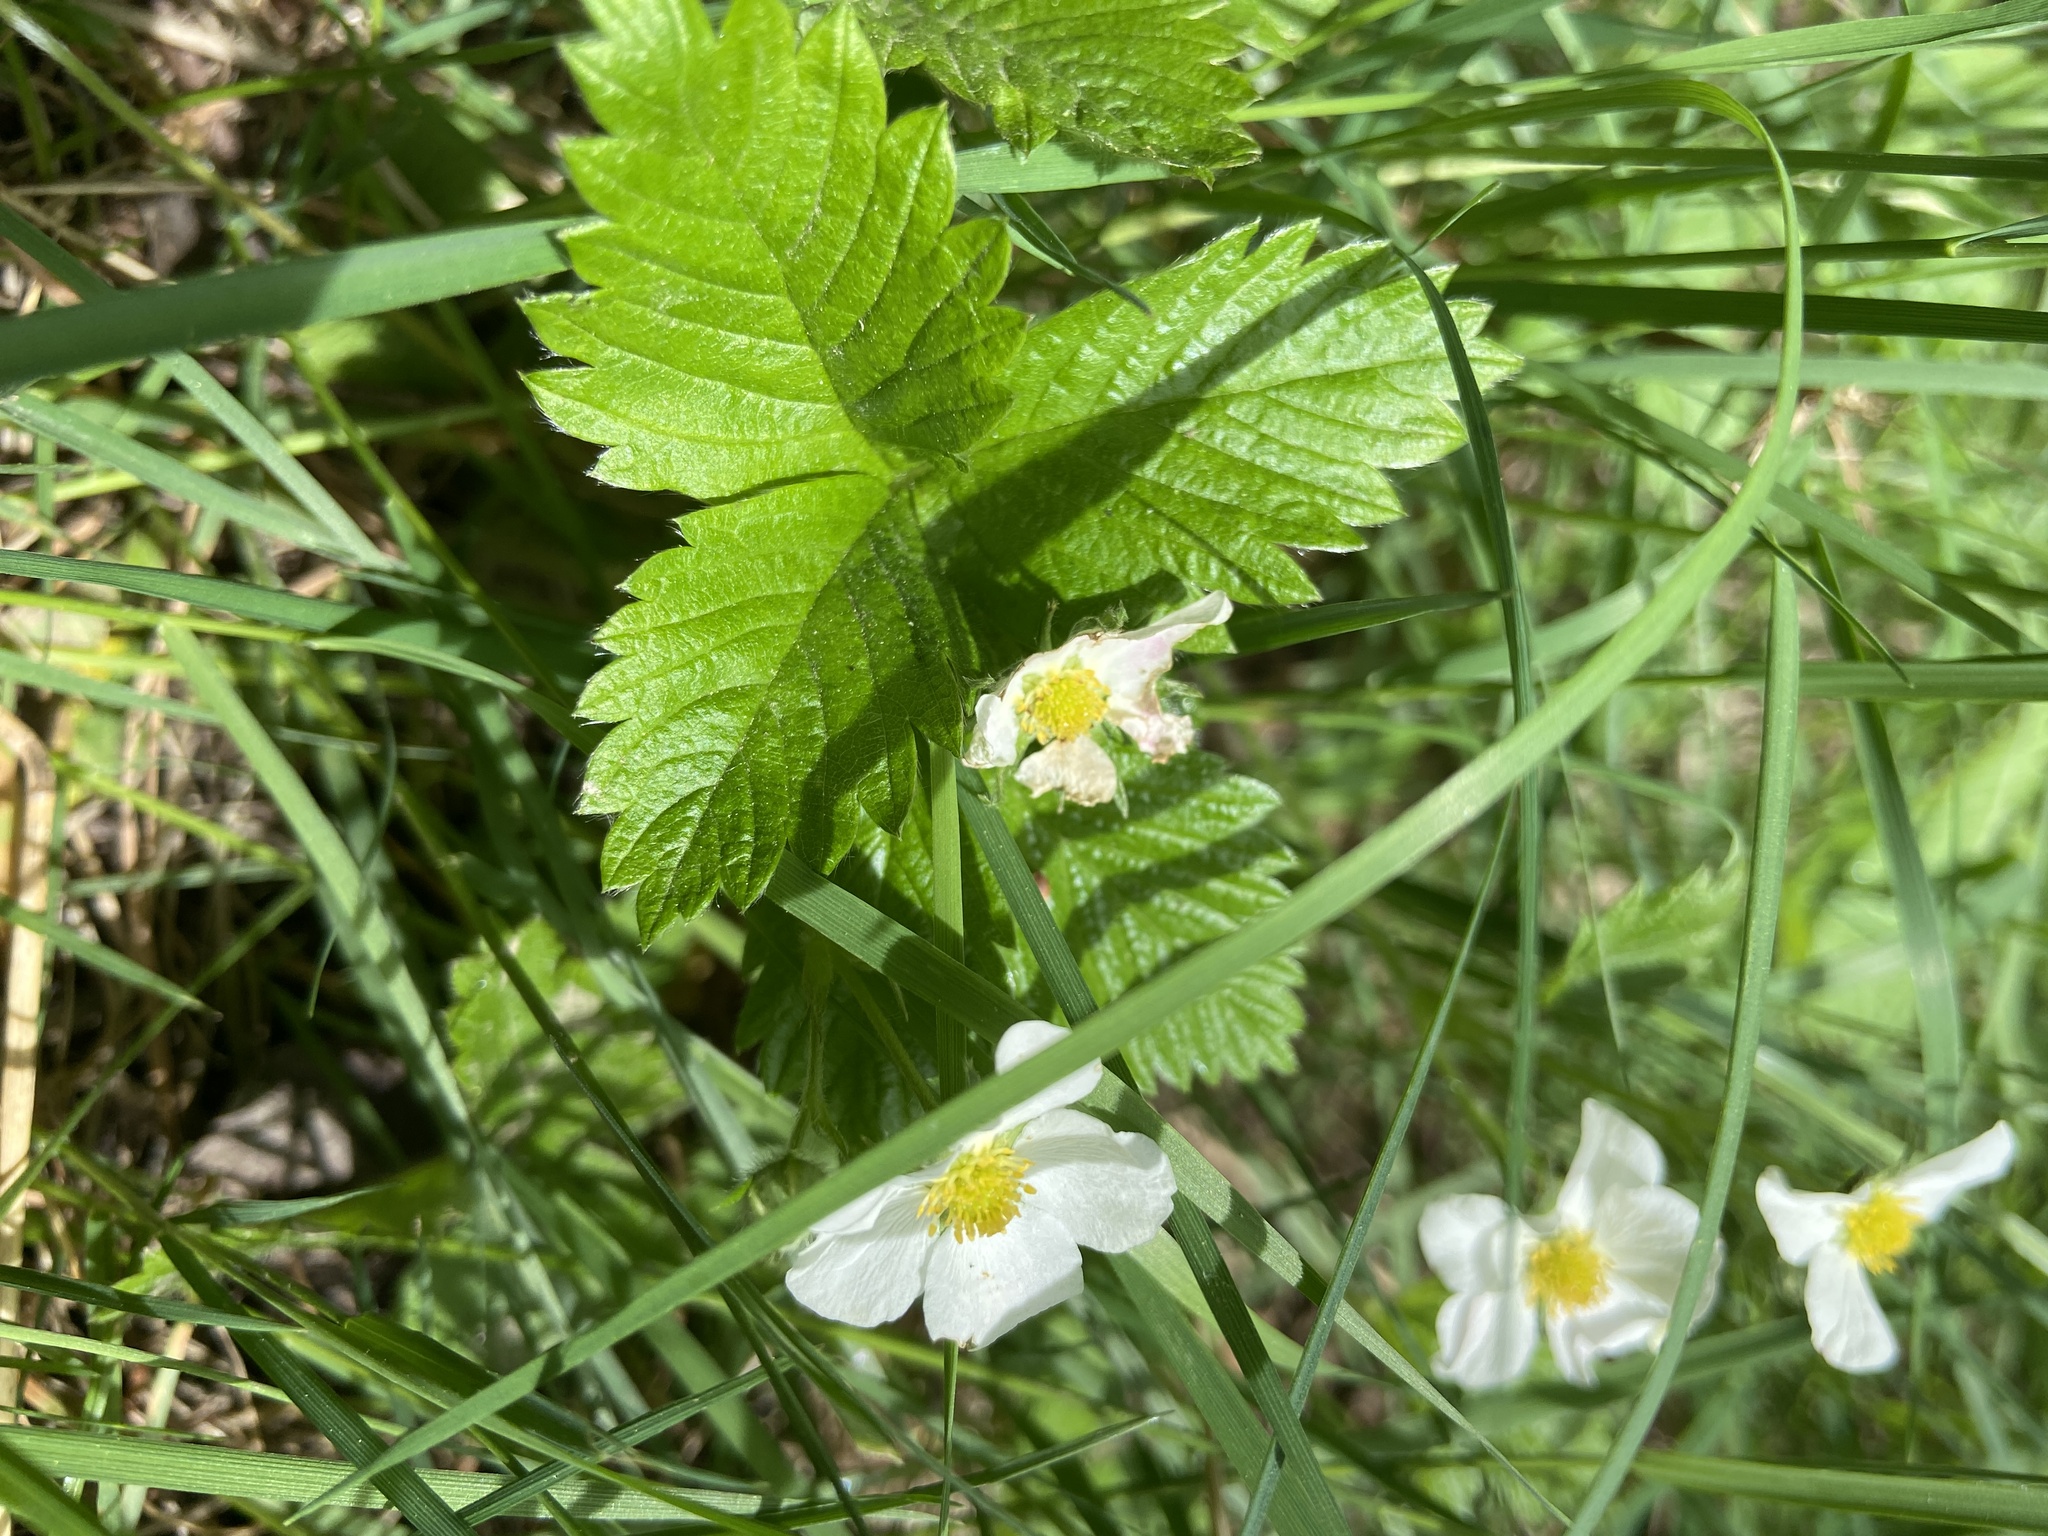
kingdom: Plantae
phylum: Tracheophyta
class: Magnoliopsida
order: Rosales
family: Rosaceae
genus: Fragaria
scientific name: Fragaria vesca
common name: Wild strawberry
